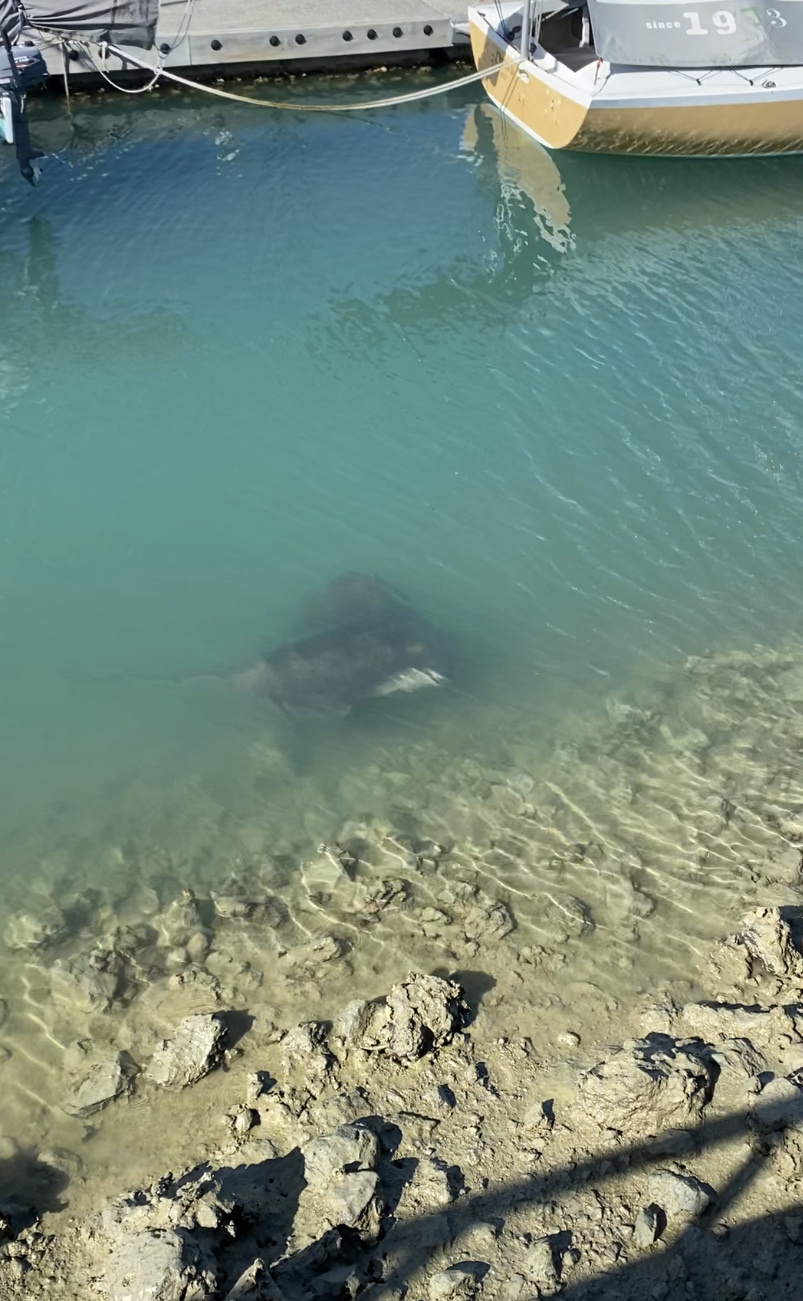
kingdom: Animalia
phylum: Chordata
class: Elasmobranchii
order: Myliobatiformes
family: Dasyatidae
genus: Bathytoshia
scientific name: Bathytoshia brevicaudata
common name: Short-tail stingray
